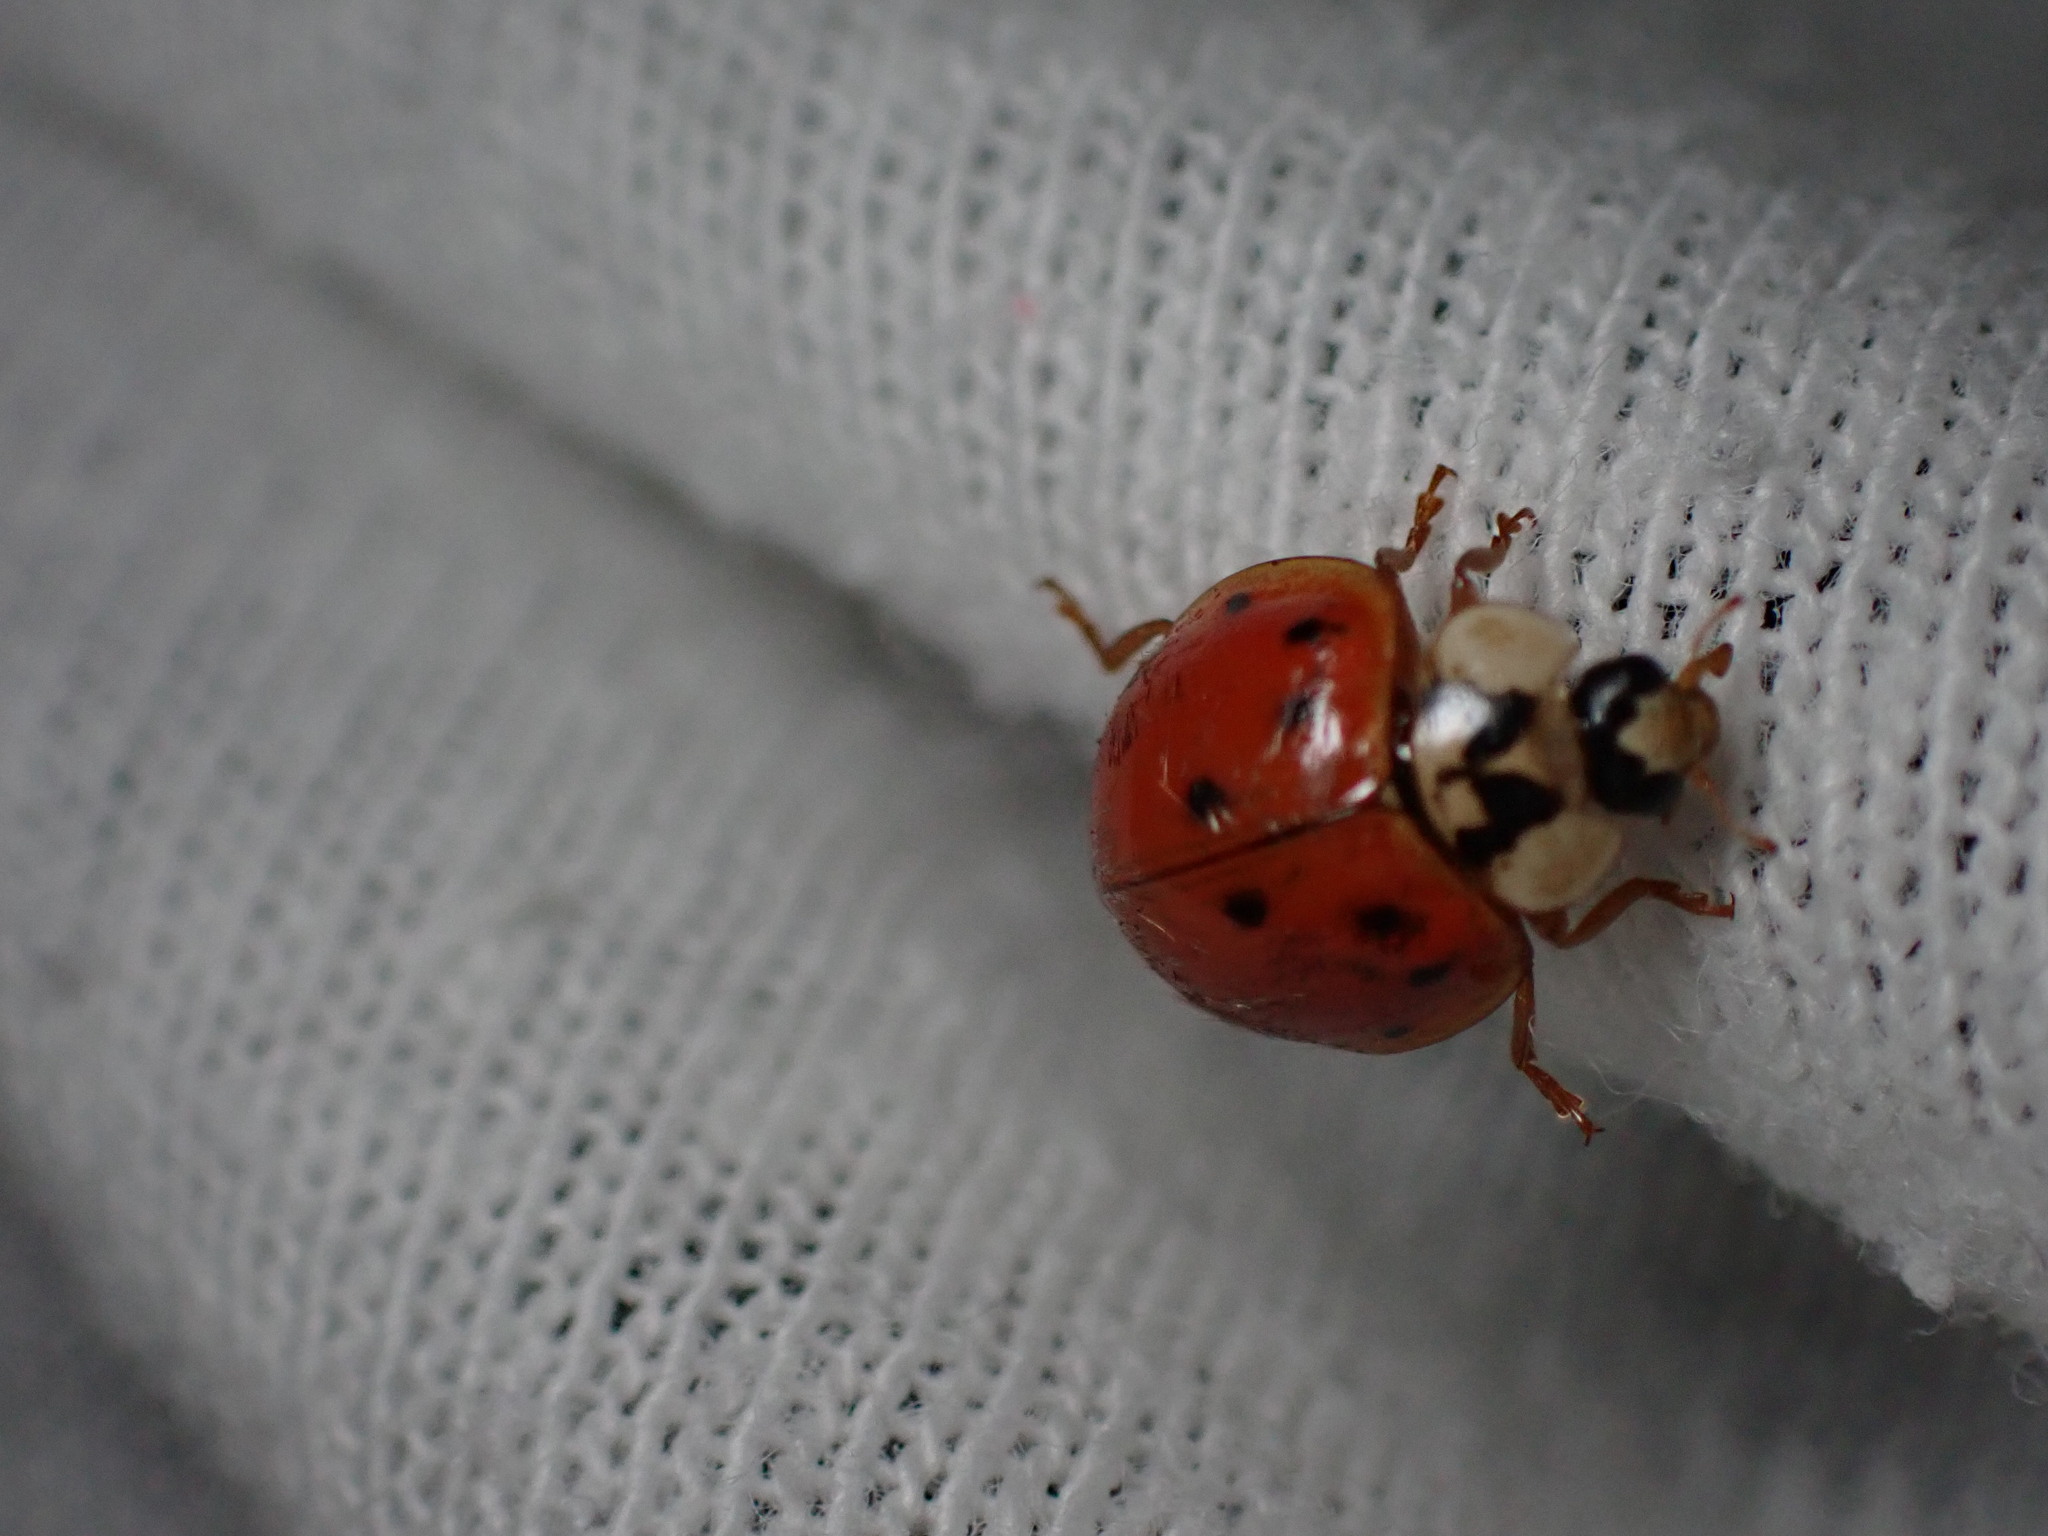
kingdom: Animalia
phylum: Arthropoda
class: Insecta
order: Coleoptera
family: Coccinellidae
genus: Harmonia
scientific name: Harmonia axyridis
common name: Harlequin ladybird
